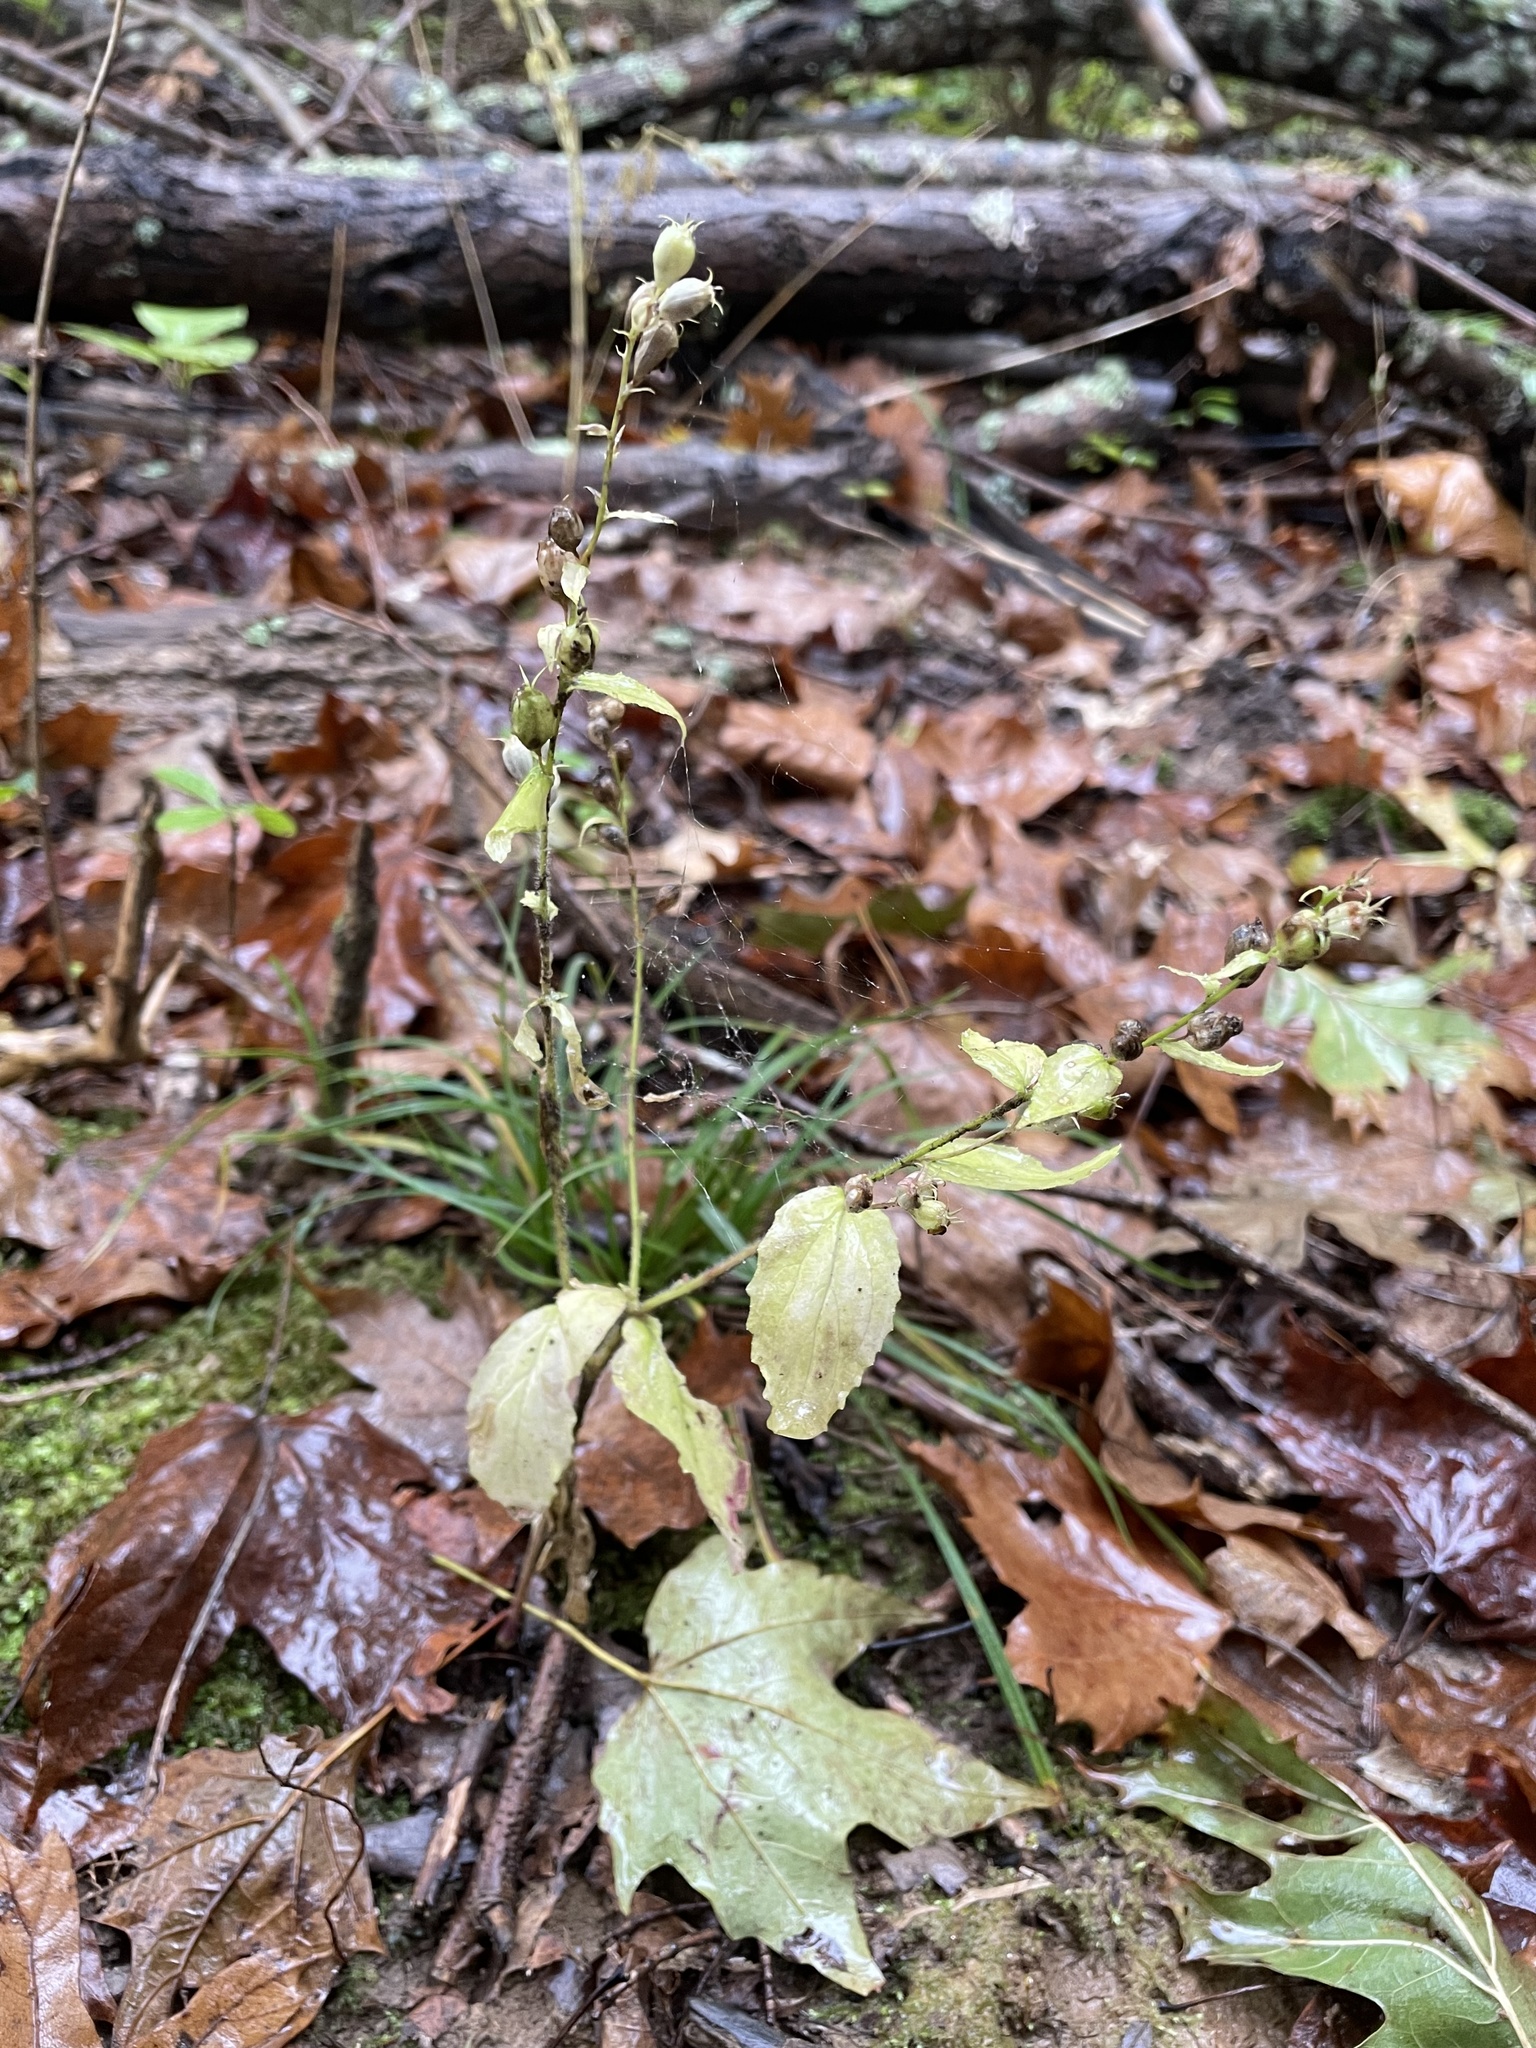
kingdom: Plantae
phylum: Tracheophyta
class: Magnoliopsida
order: Asterales
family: Campanulaceae
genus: Lobelia
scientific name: Lobelia inflata
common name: Indian tobacco
